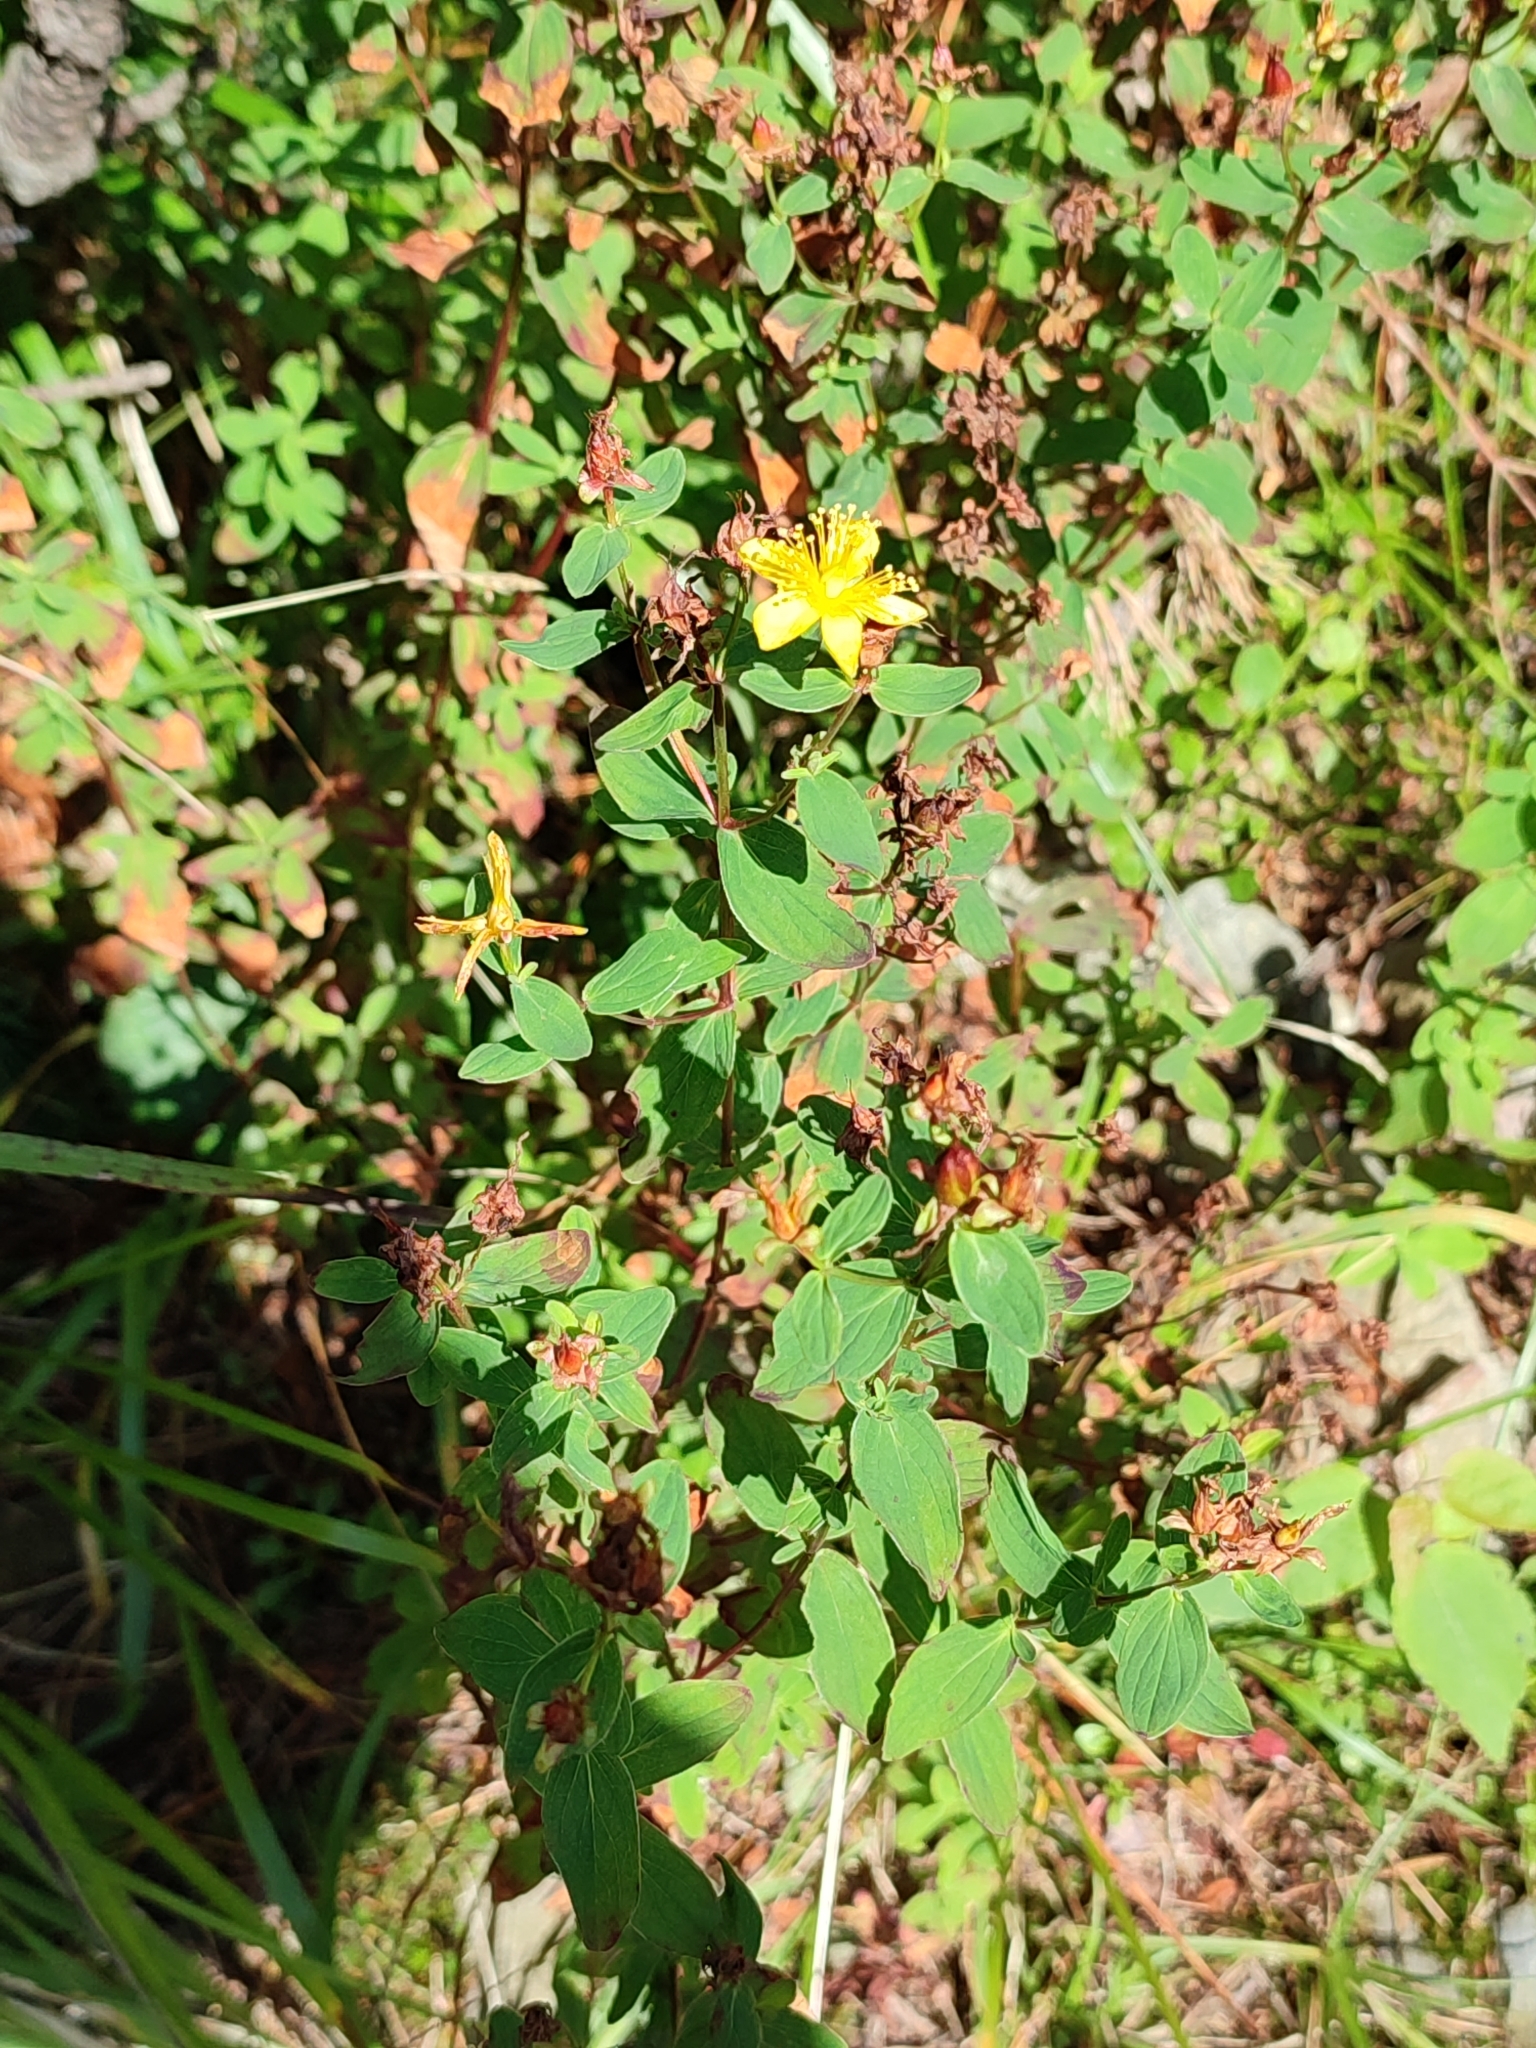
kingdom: Plantae
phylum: Tracheophyta
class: Magnoliopsida
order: Malpighiales
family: Hypericaceae
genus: Hypericum
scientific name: Hypericum maculatum
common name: Imperforate st. john's-wort
